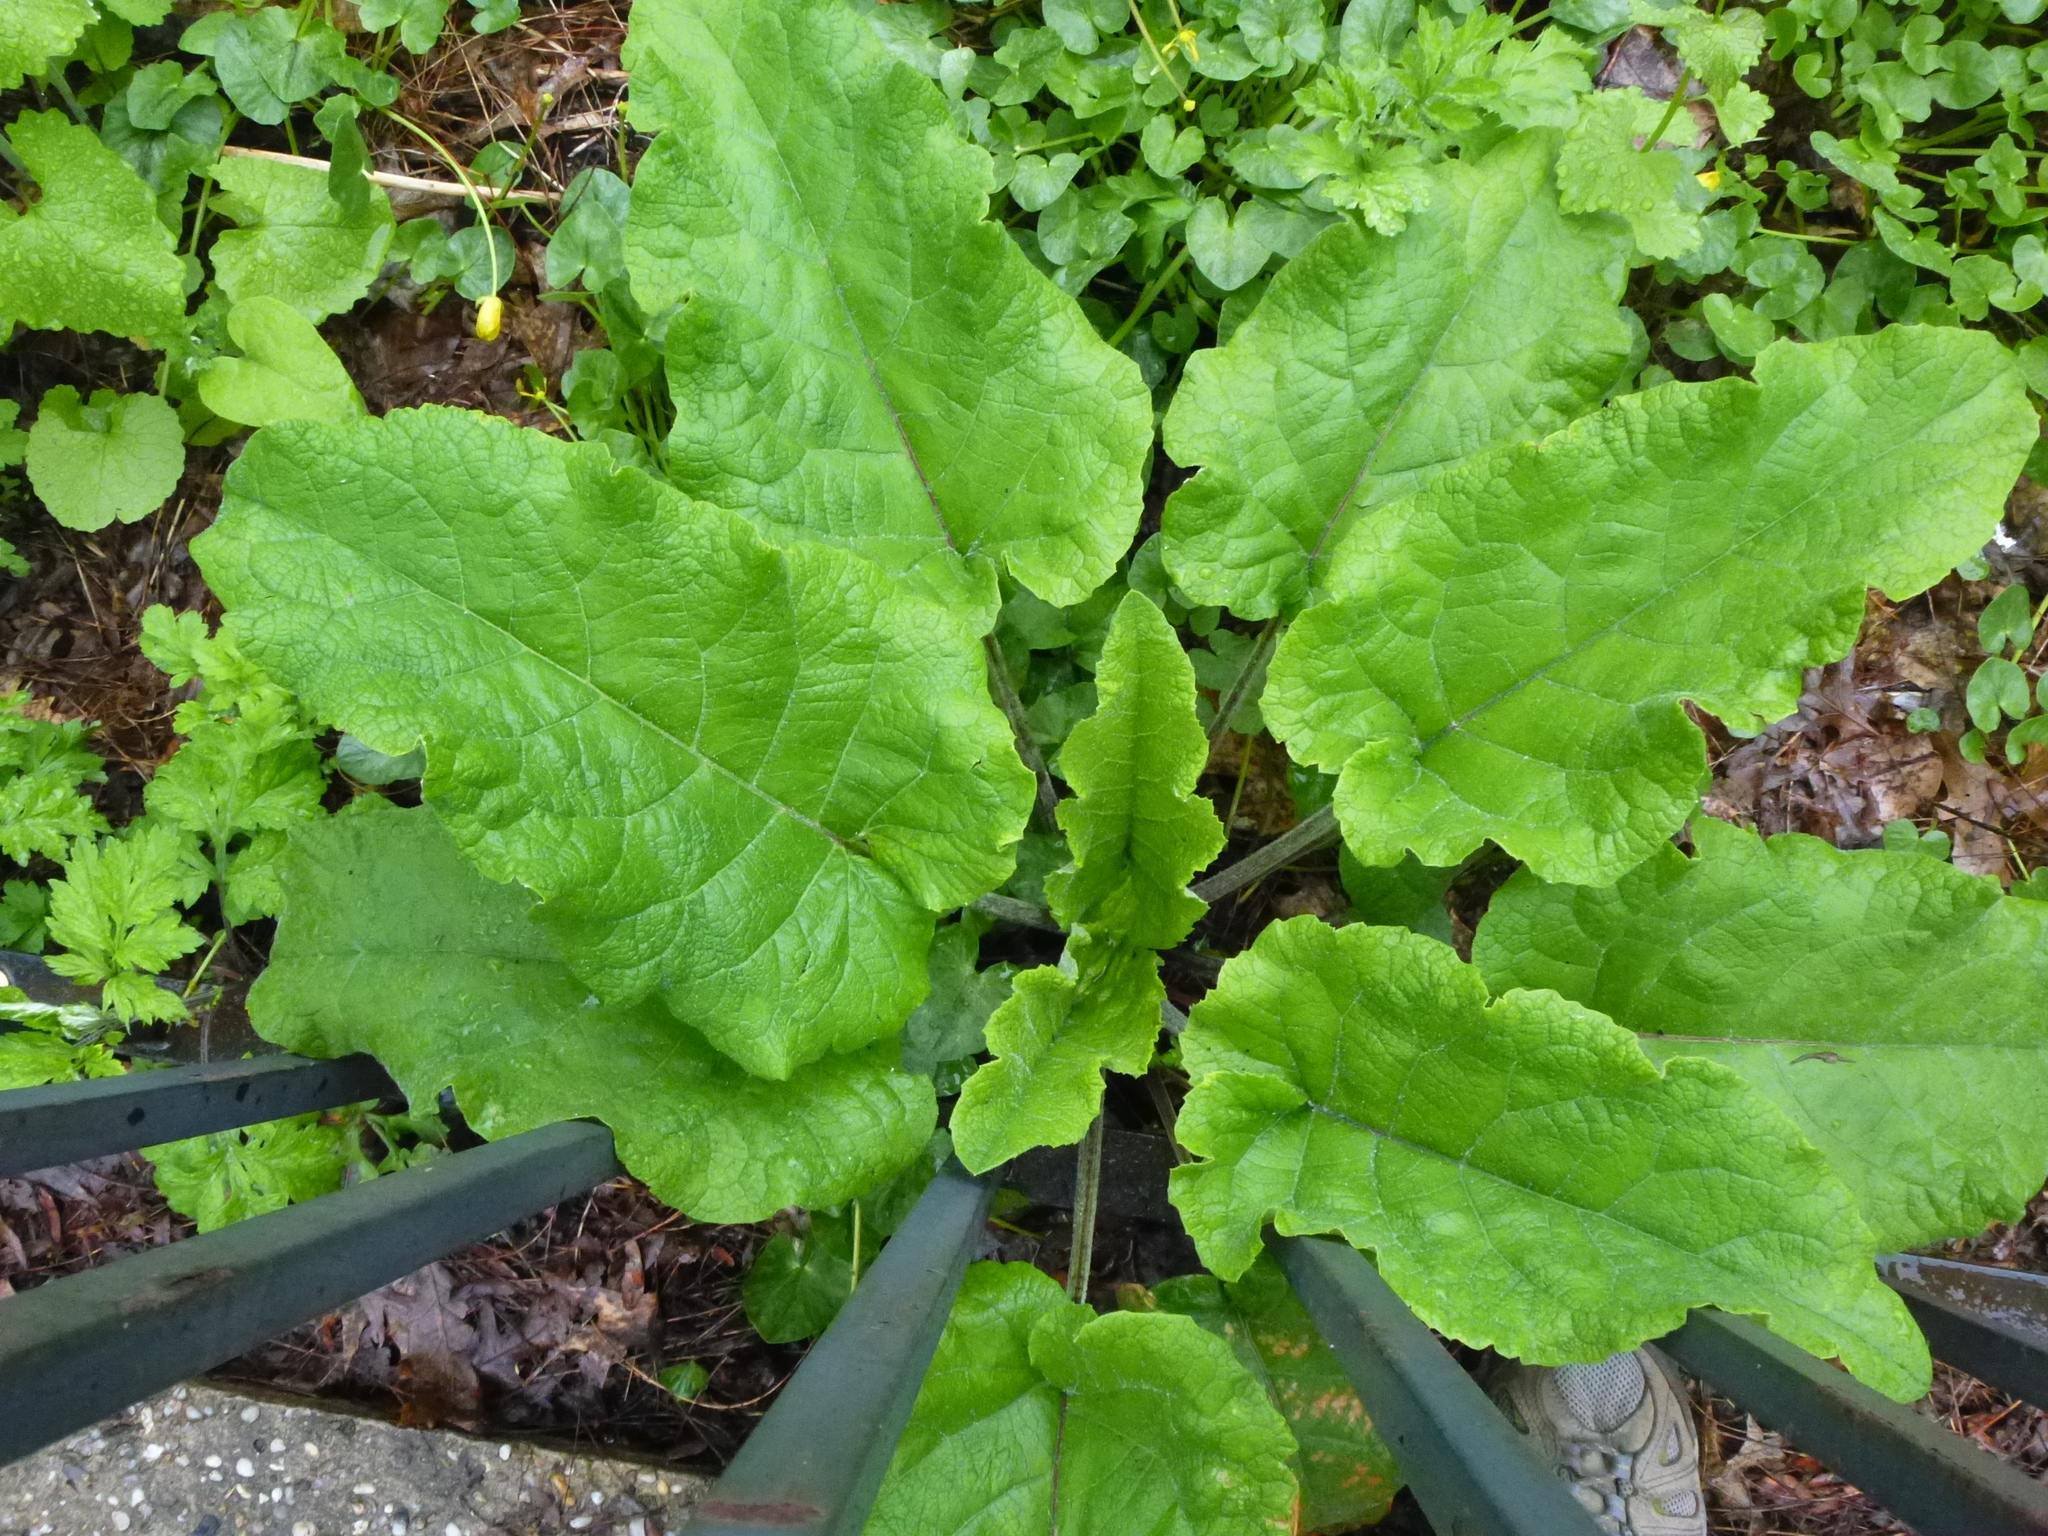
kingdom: Plantae
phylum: Tracheophyta
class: Magnoliopsida
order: Asterales
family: Asteraceae
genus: Arctium
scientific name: Arctium minus
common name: Lesser burdock
